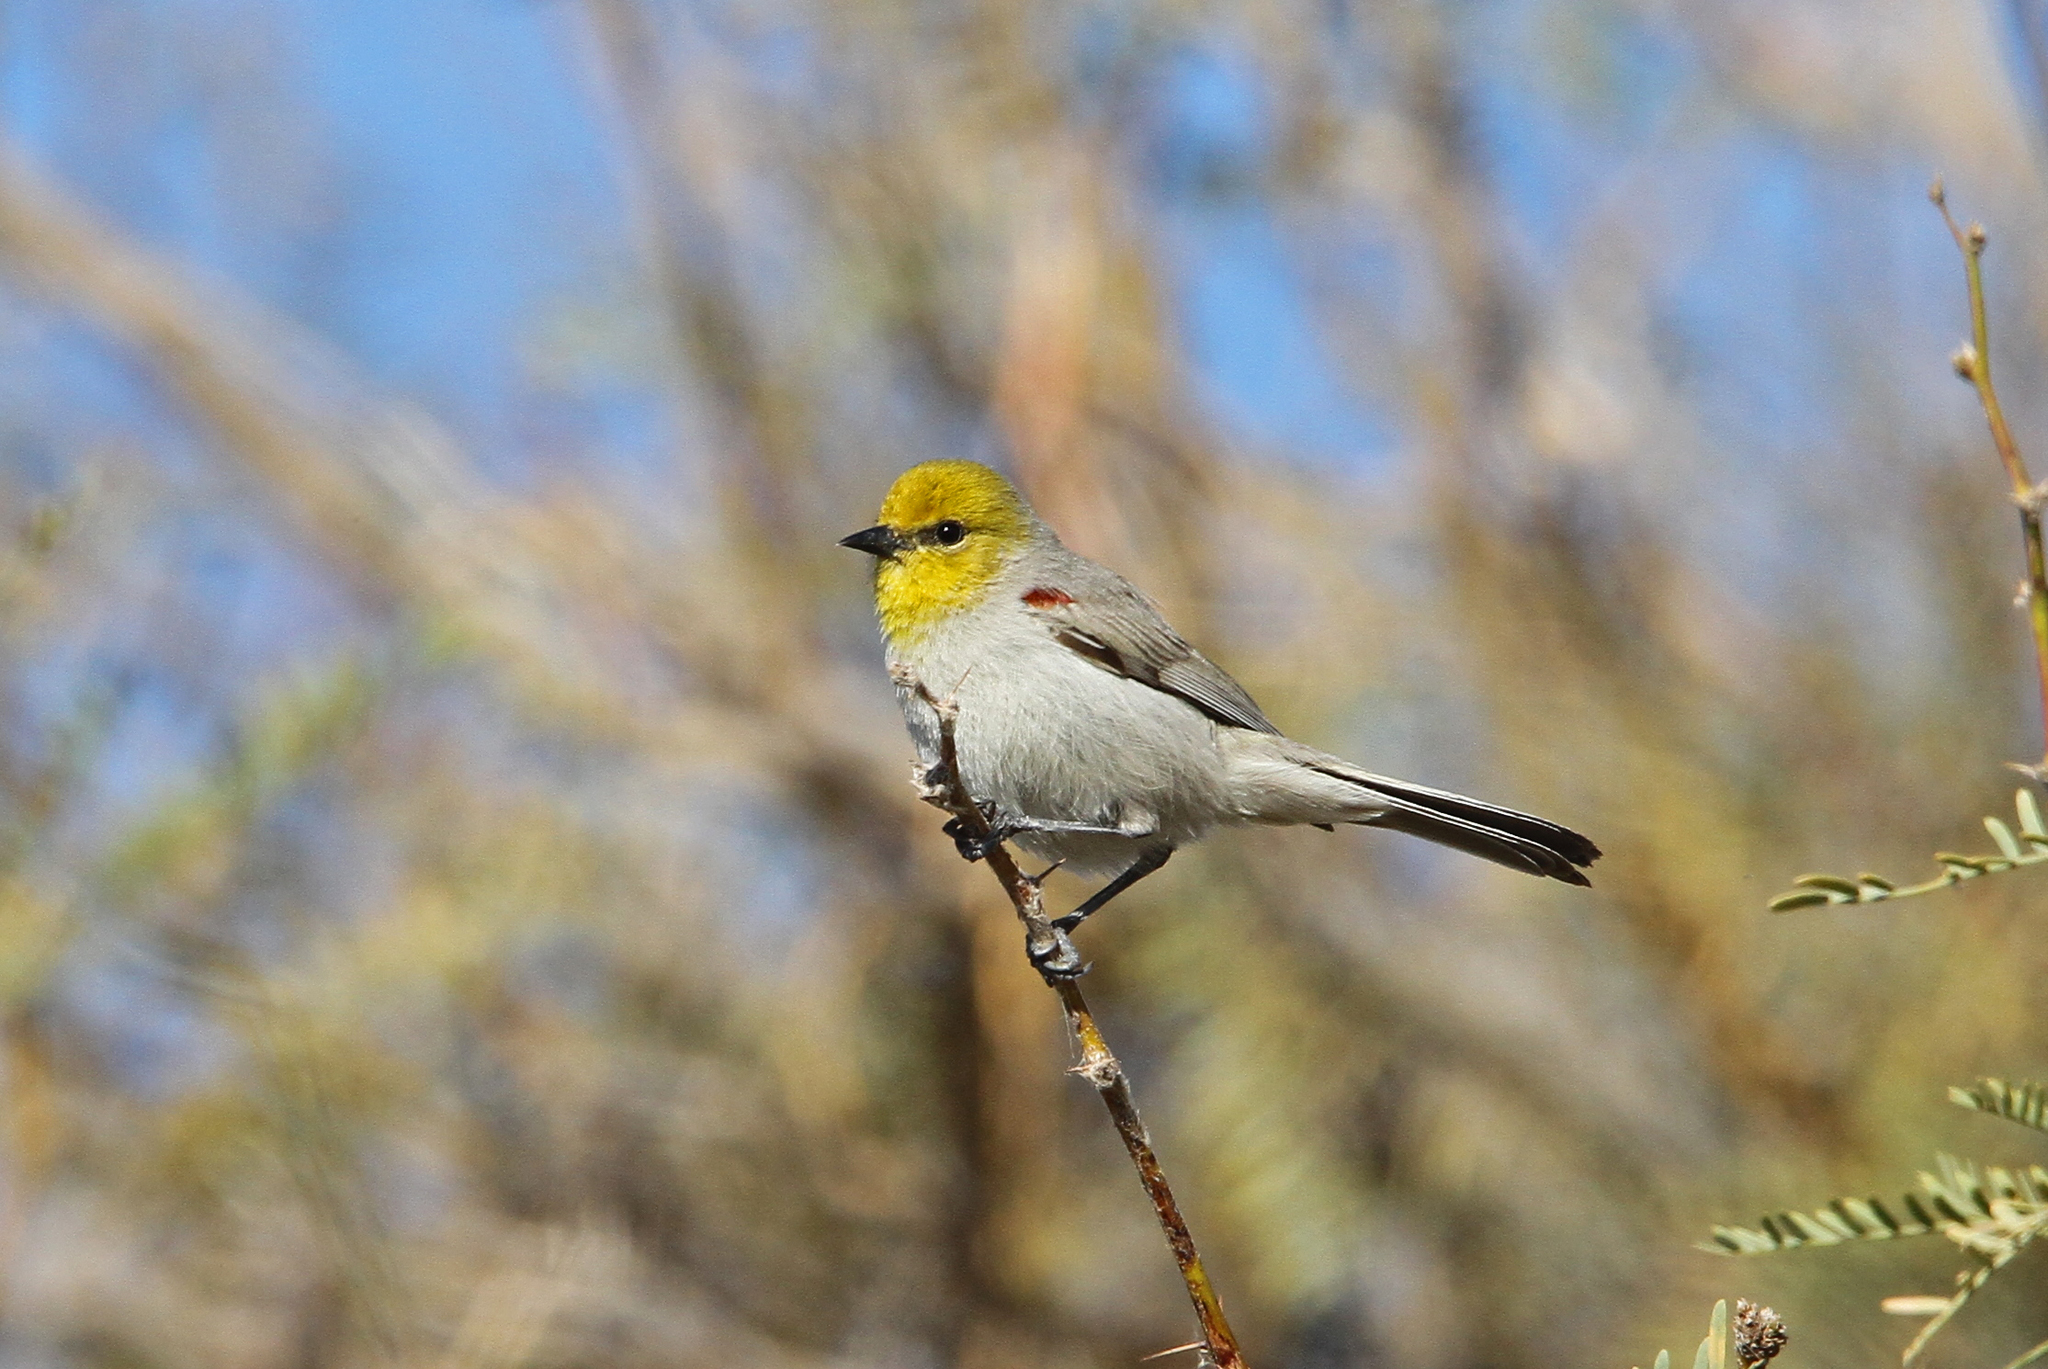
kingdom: Animalia
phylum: Chordata
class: Aves
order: Passeriformes
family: Remizidae
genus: Auriparus
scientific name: Auriparus flaviceps
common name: Verdin
